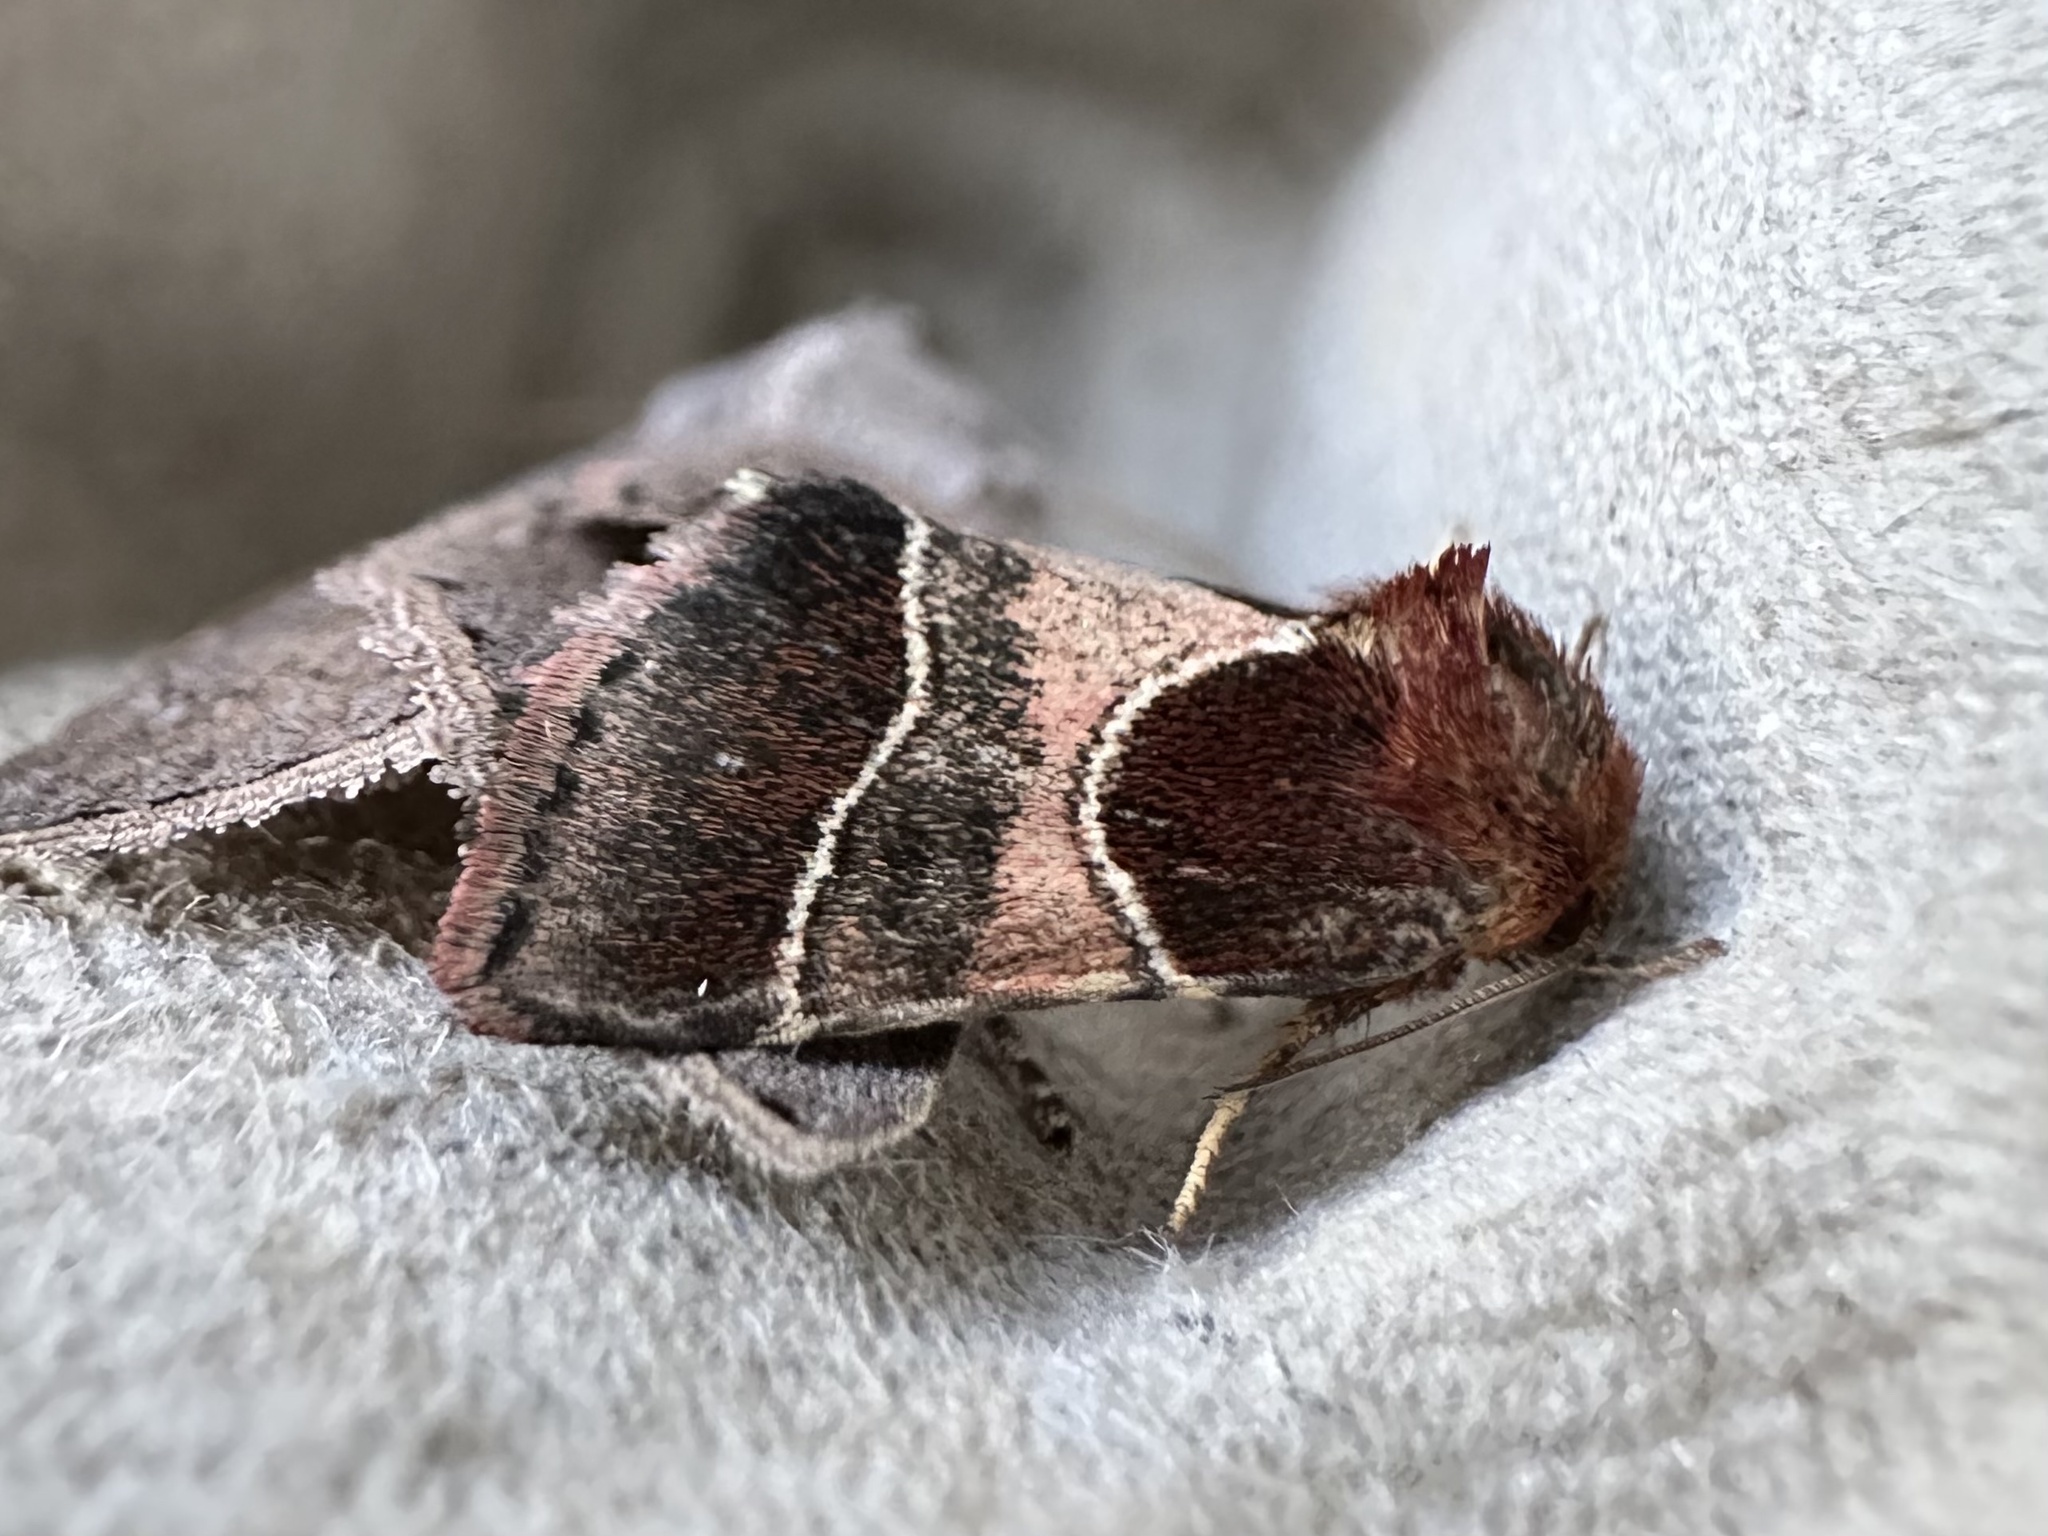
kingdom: Animalia
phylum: Arthropoda
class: Insecta
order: Lepidoptera
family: Noctuidae
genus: Schinia
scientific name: Schinia arcigera
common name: Arcigera flower moth
